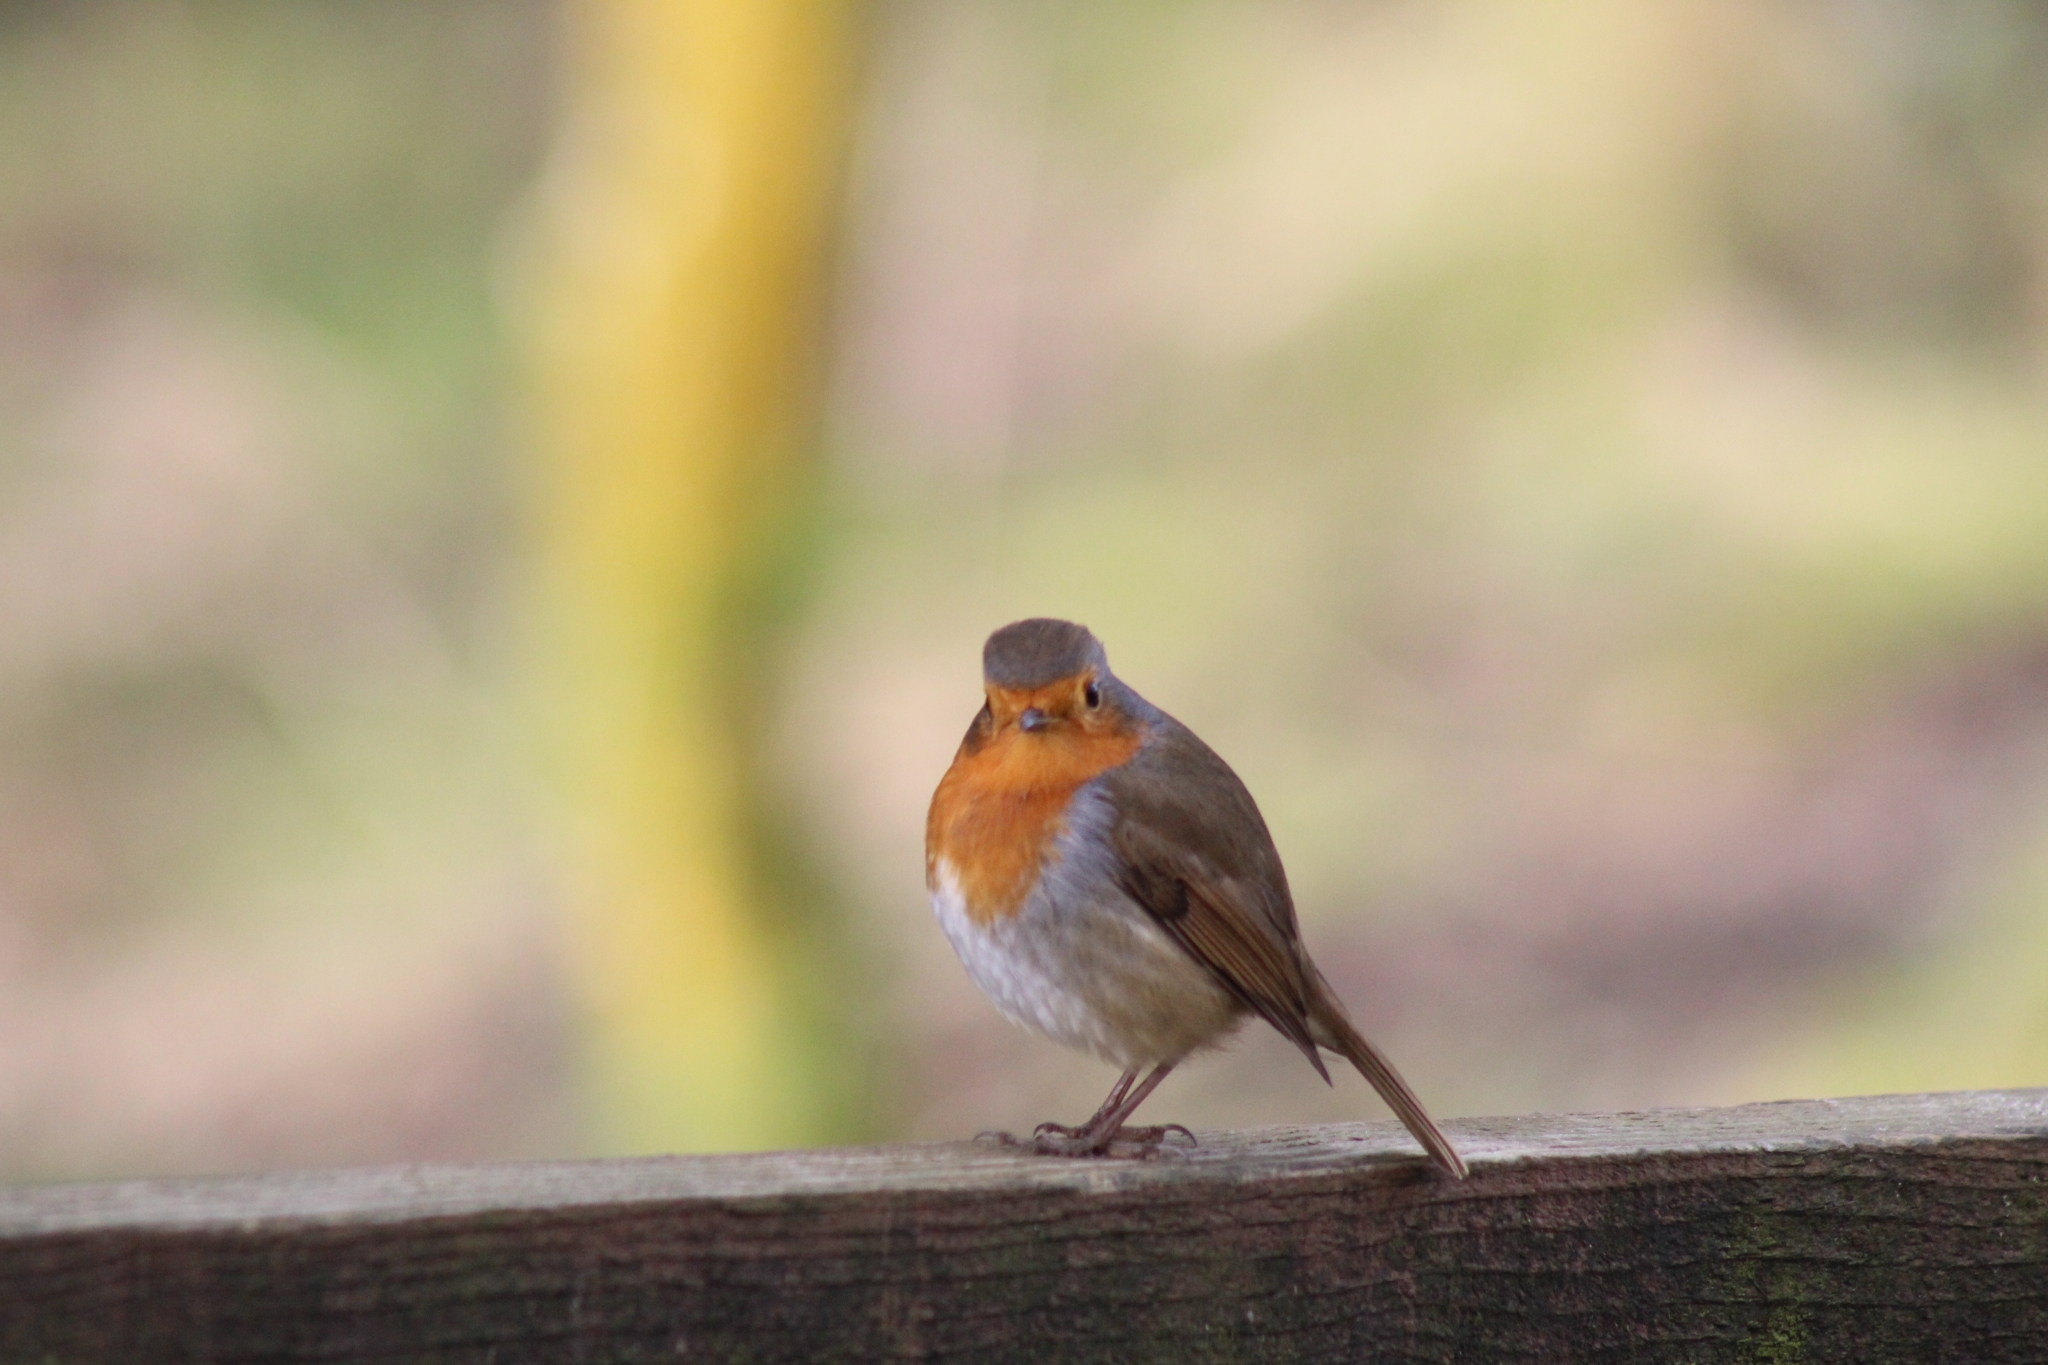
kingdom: Animalia
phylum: Chordata
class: Aves
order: Passeriformes
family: Muscicapidae
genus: Erithacus
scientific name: Erithacus rubecula
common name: European robin
